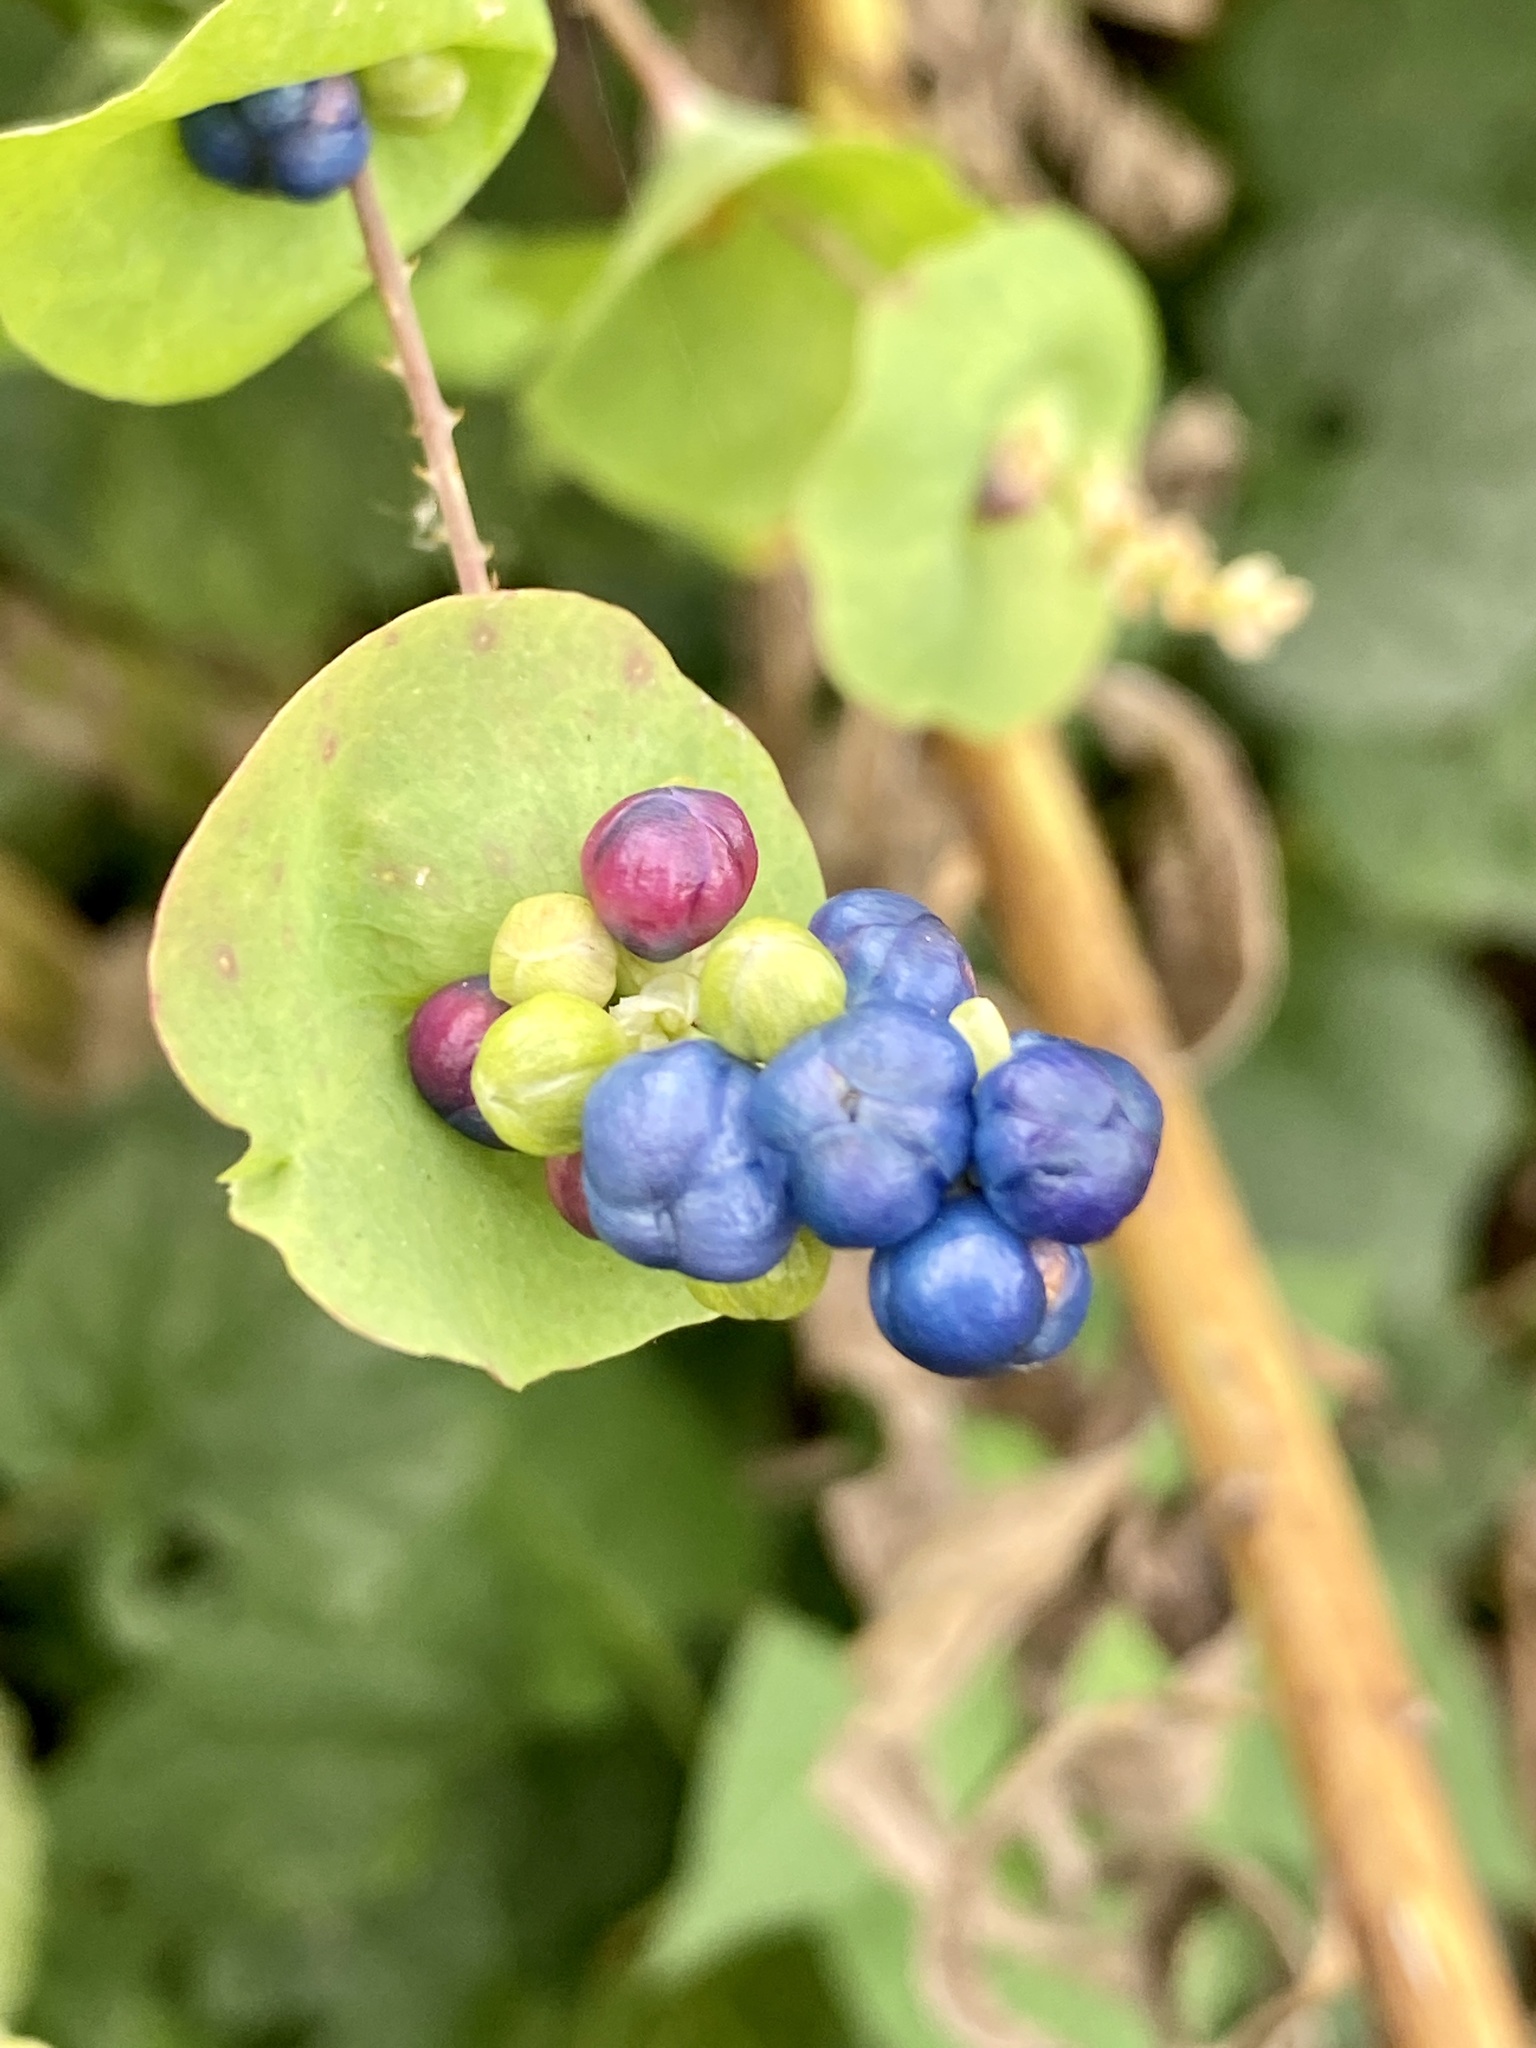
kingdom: Plantae
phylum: Tracheophyta
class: Magnoliopsida
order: Caryophyllales
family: Polygonaceae
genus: Persicaria
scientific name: Persicaria perfoliata
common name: Asiatic tearthumb
